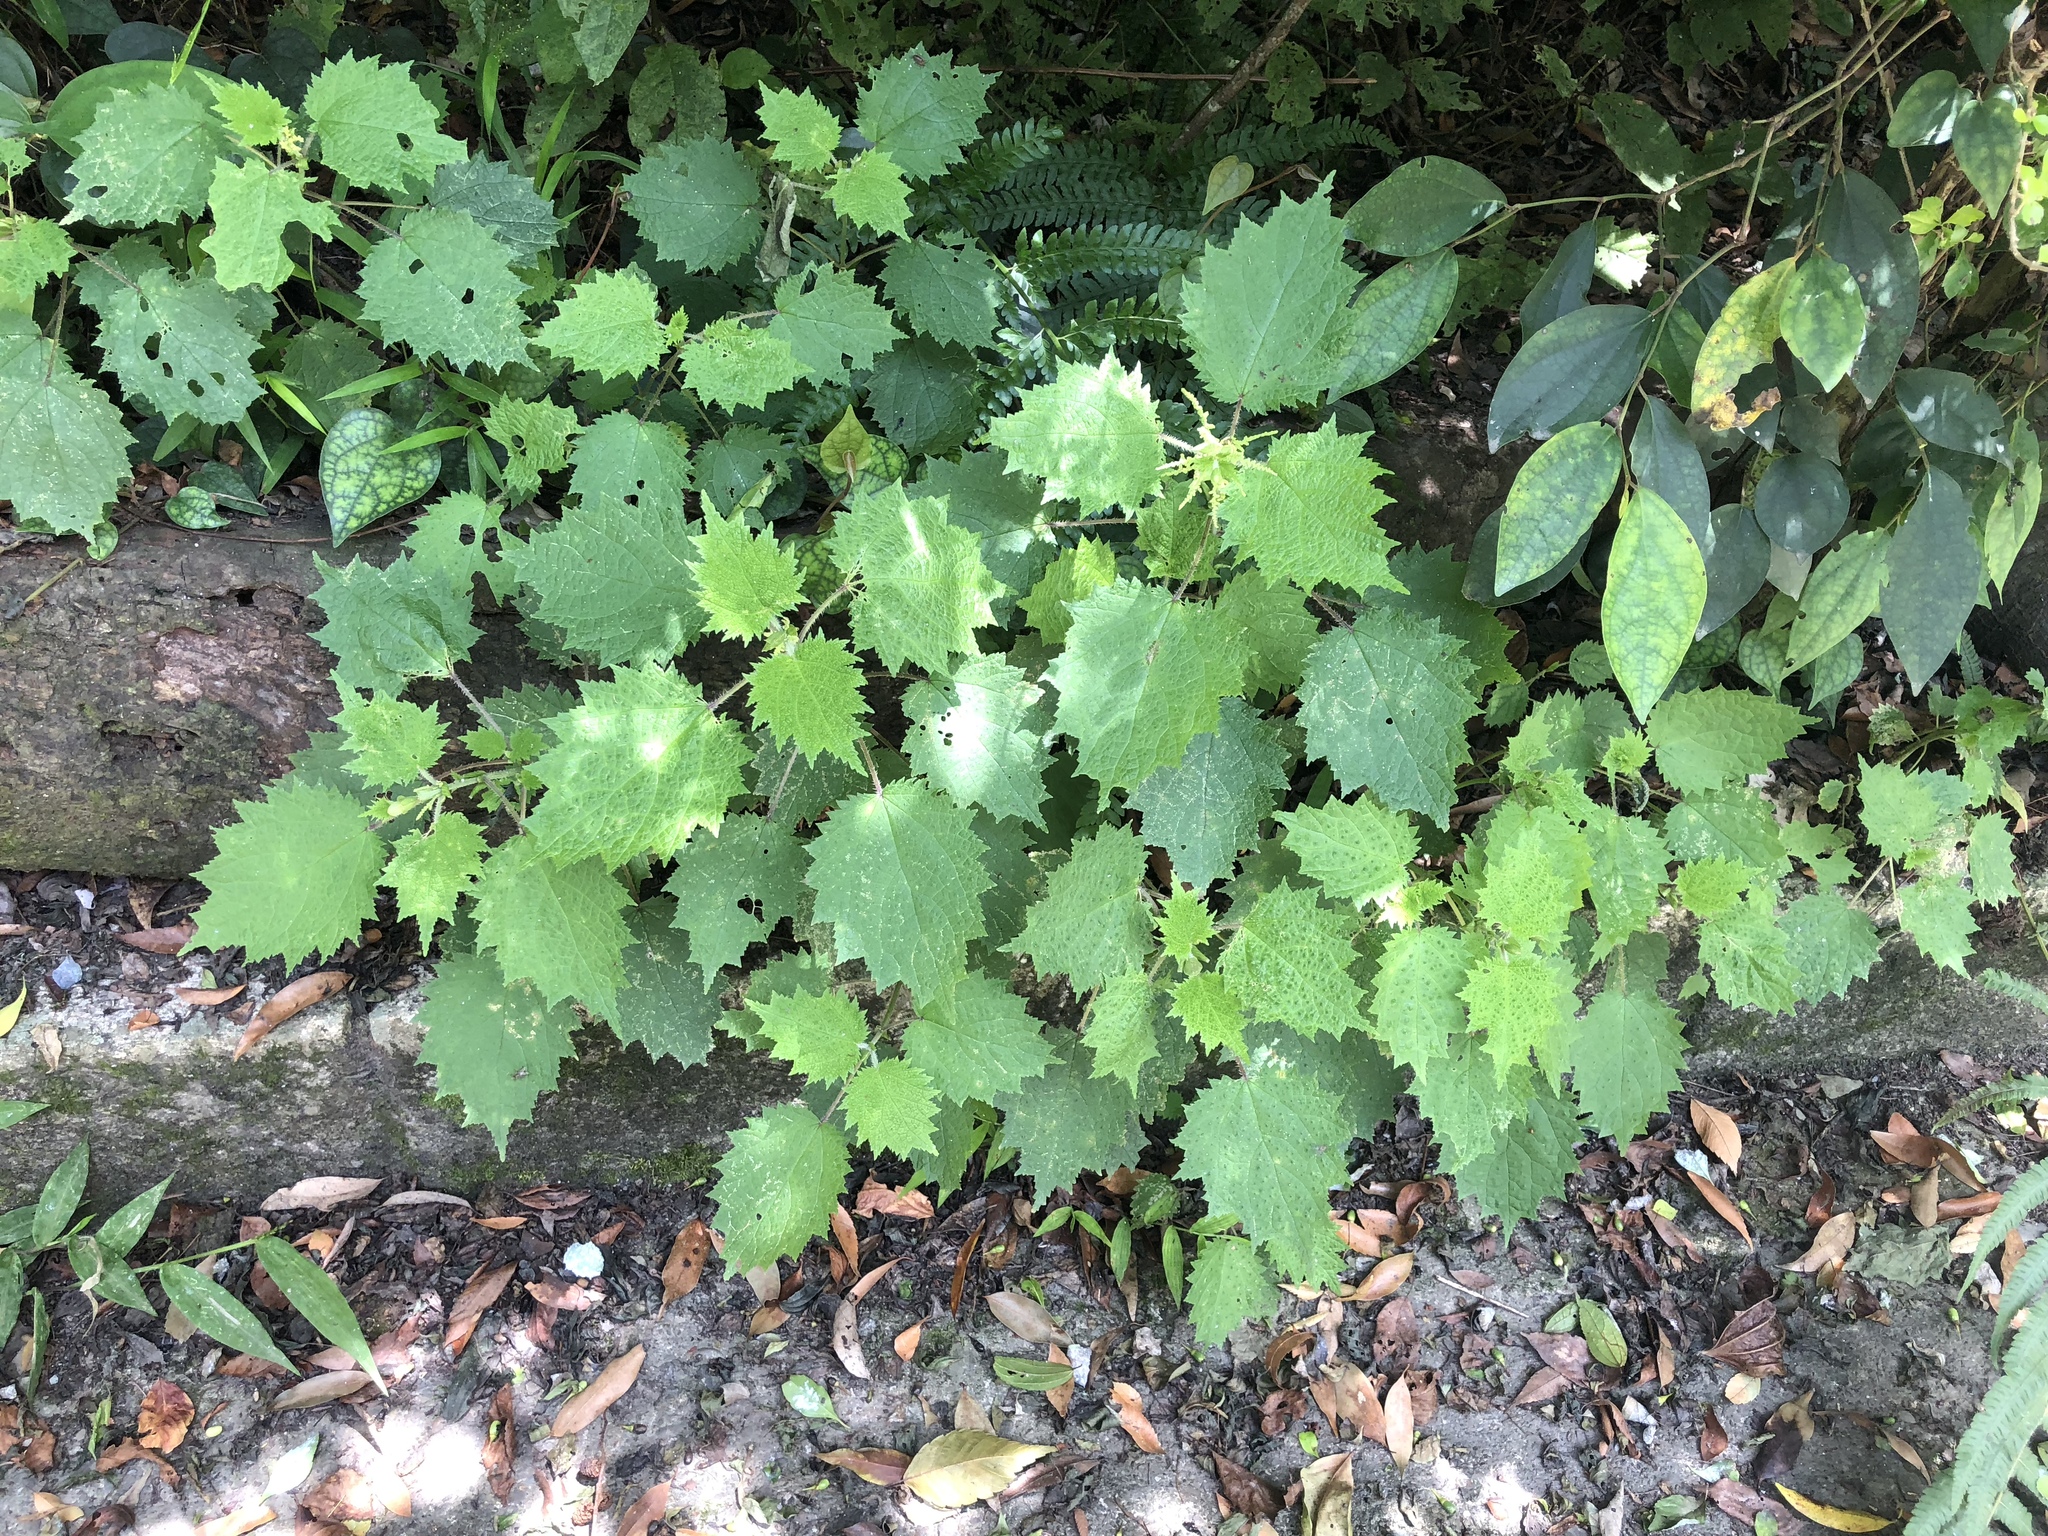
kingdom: Plantae
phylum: Tracheophyta
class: Magnoliopsida
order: Rosales
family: Urticaceae
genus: Urtica
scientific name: Urtica thunbergiana
